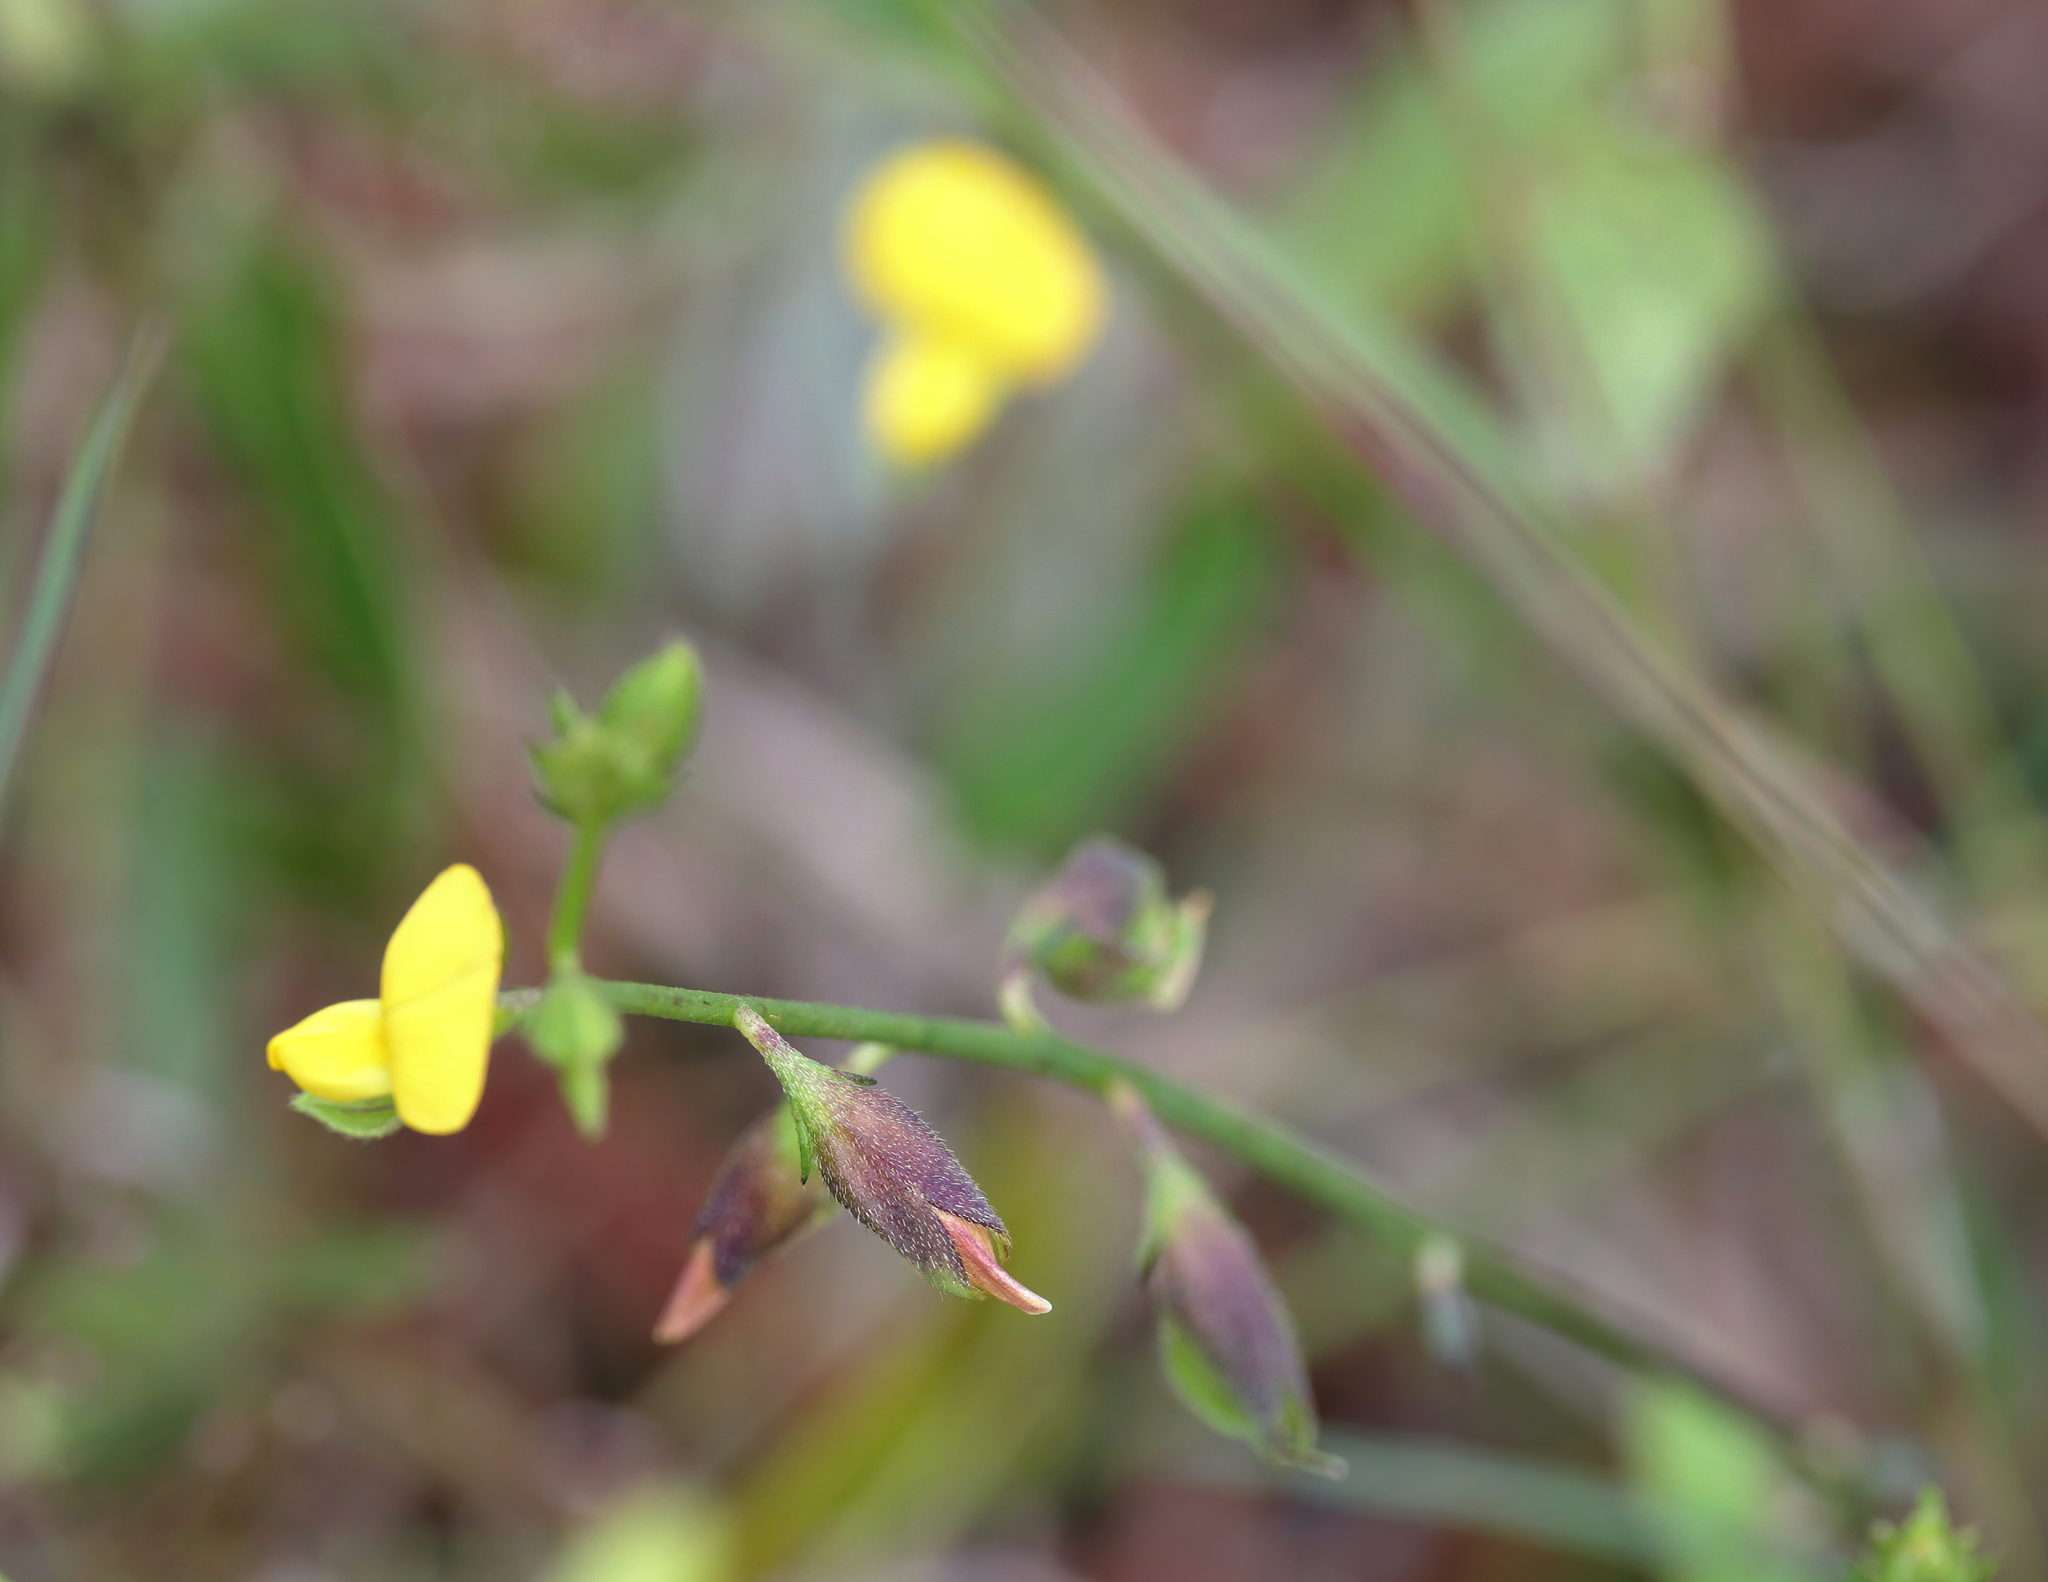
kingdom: Plantae
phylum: Tracheophyta
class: Magnoliopsida
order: Fabales
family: Fabaceae
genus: Crotalaria
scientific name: Crotalaria rotundifolia
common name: Prostrate rattlebox
